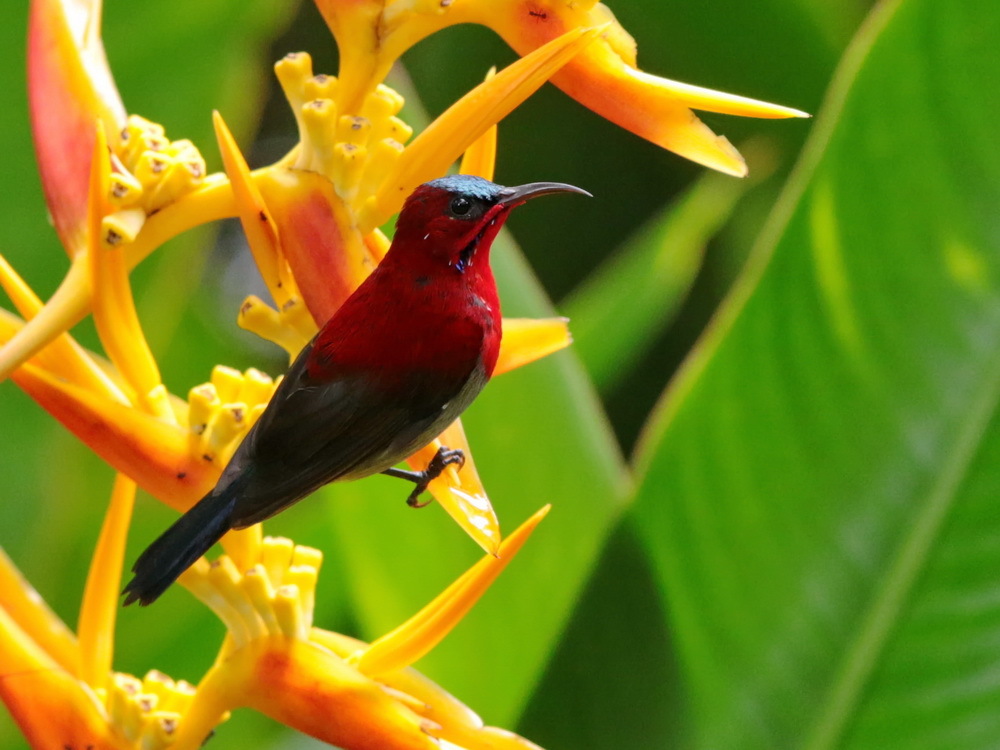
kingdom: Animalia
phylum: Chordata
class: Aves
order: Passeriformes
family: Nectariniidae
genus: Aethopyga
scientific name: Aethopyga siparaja
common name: Crimson sunbird
